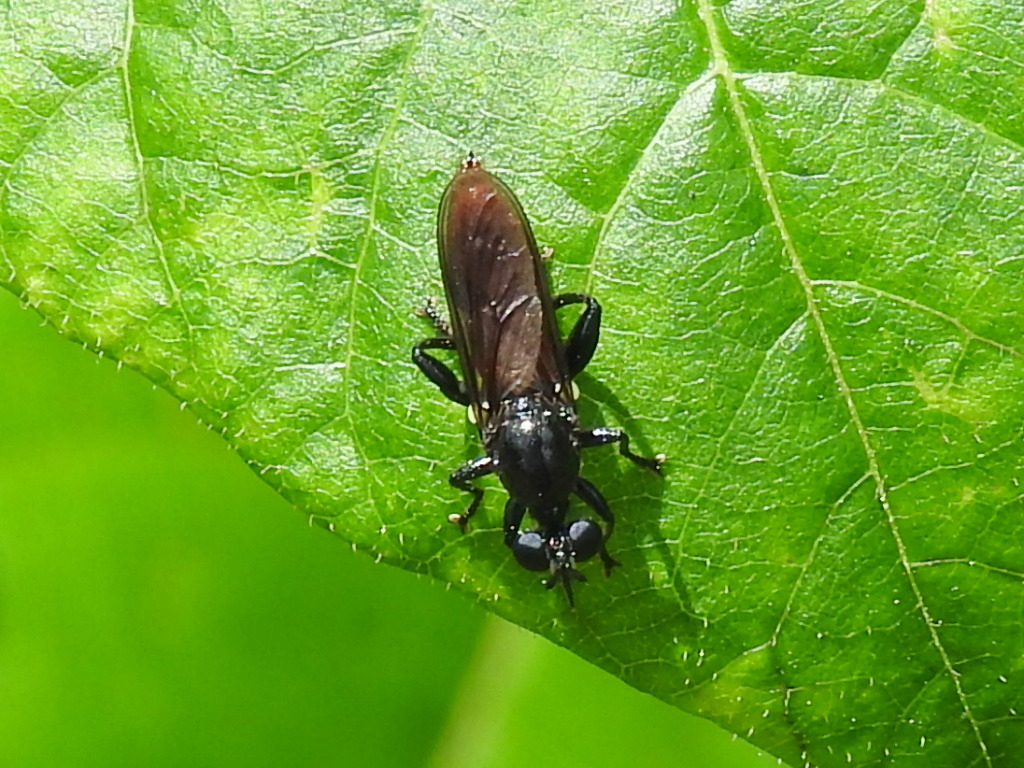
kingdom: Animalia
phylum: Arthropoda
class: Insecta
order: Diptera
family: Asilidae
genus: Lampria
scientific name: Lampria bicolor
